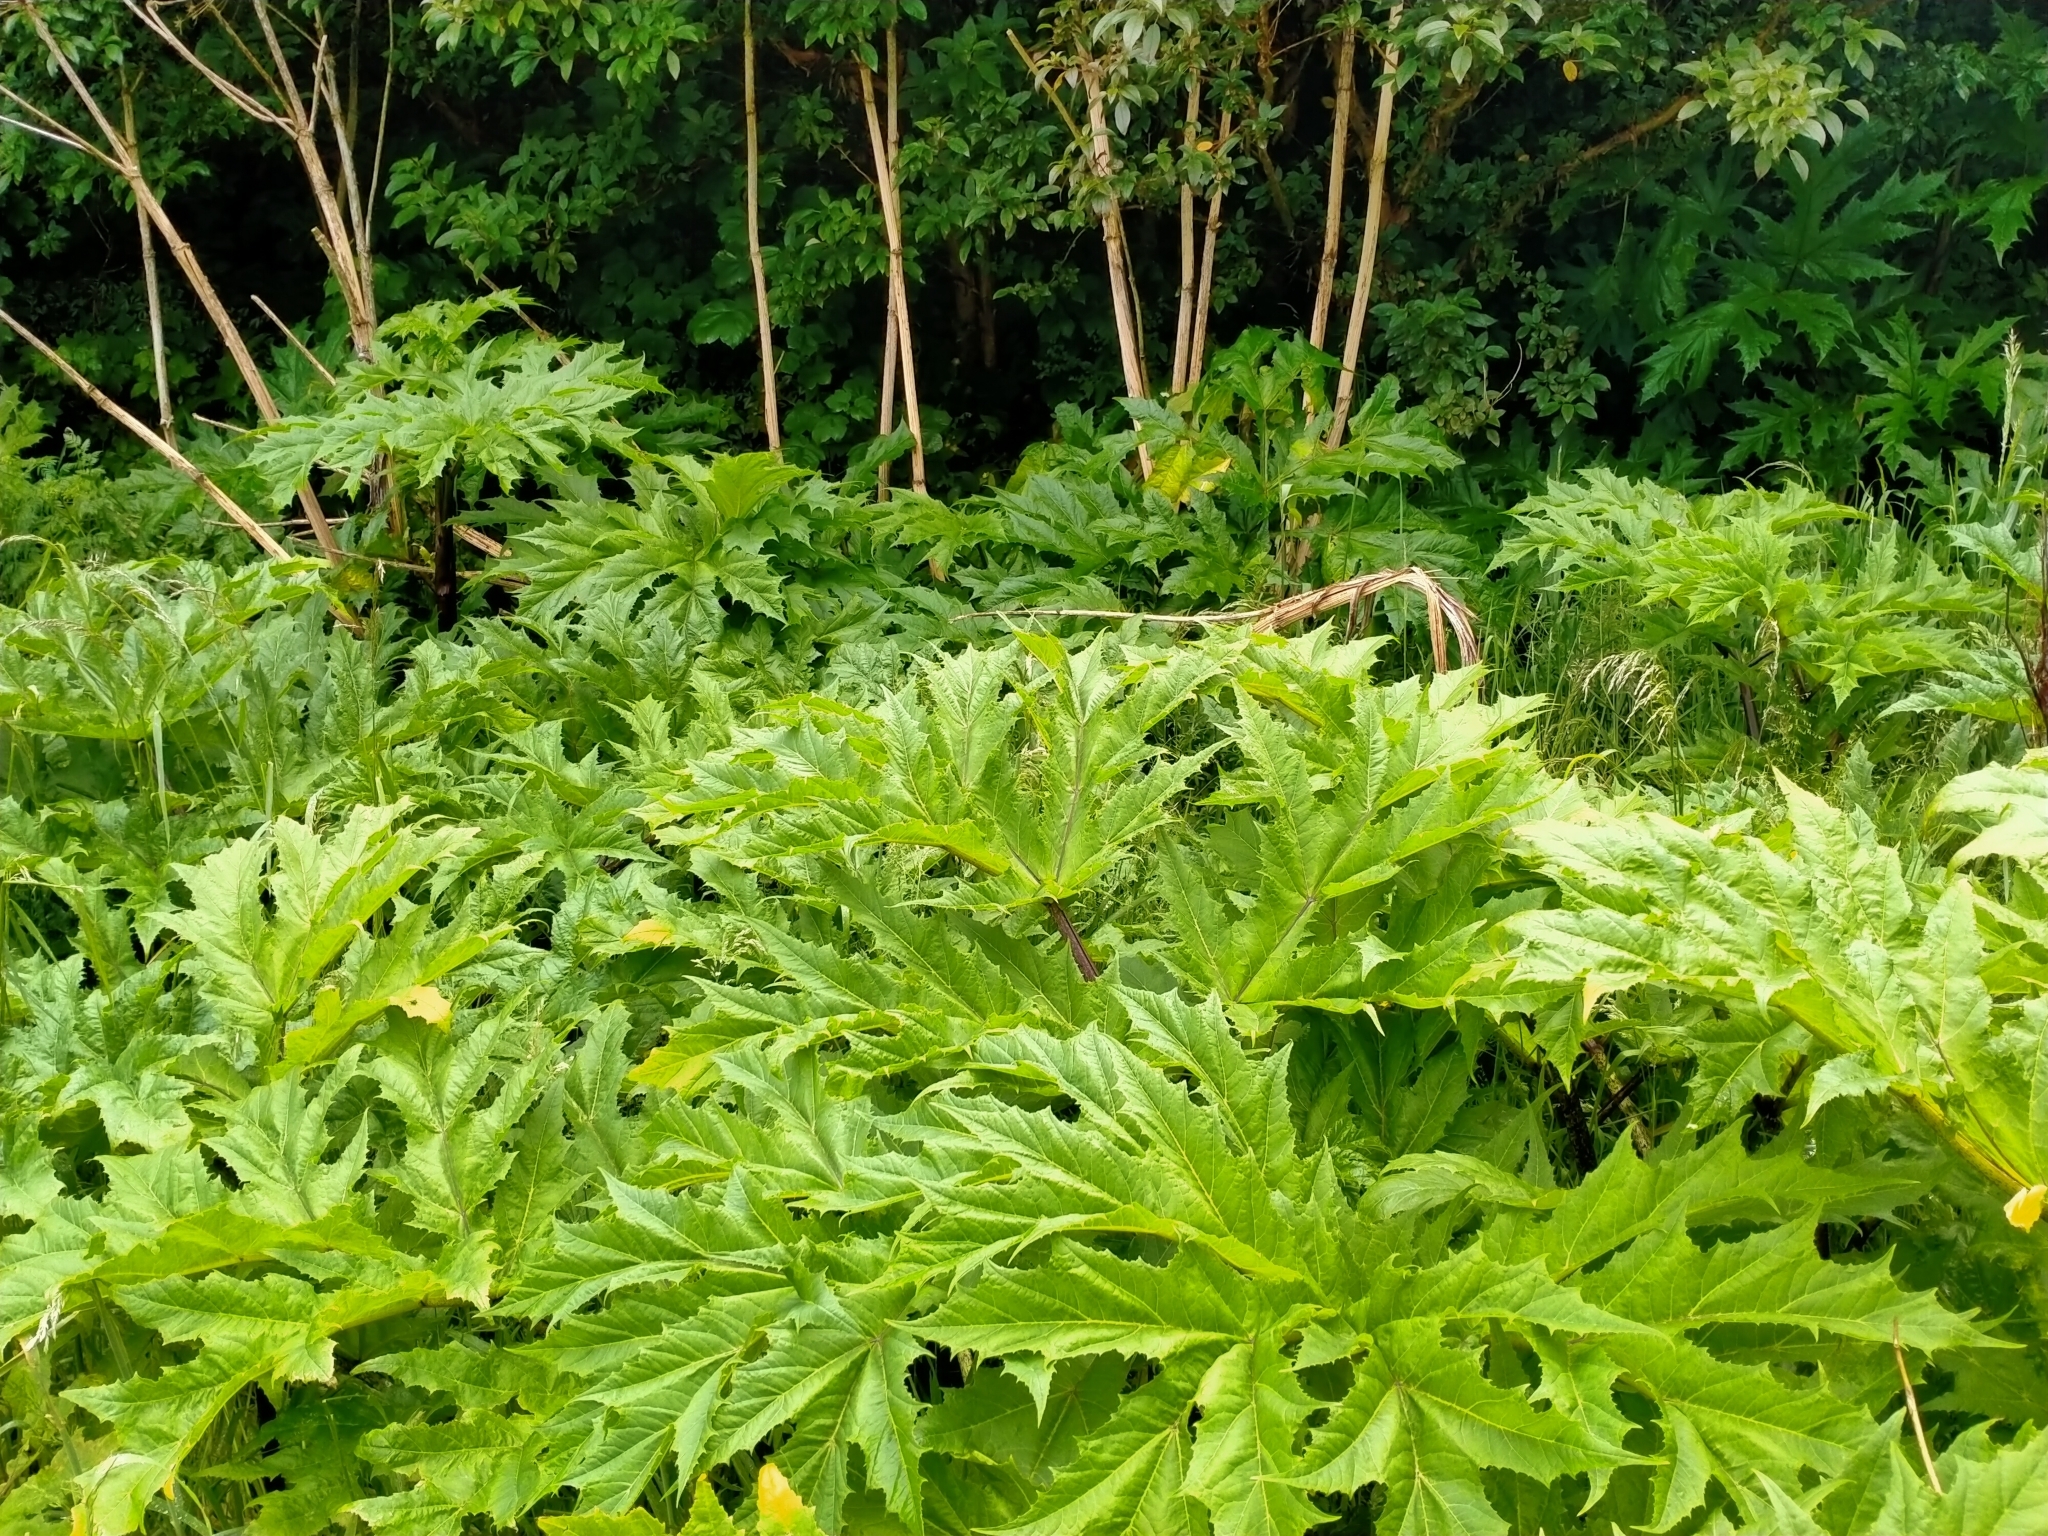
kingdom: Plantae
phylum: Tracheophyta
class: Magnoliopsida
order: Apiales
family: Apiaceae
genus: Heracleum
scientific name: Heracleum mantegazzianum
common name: Giant hogweed
